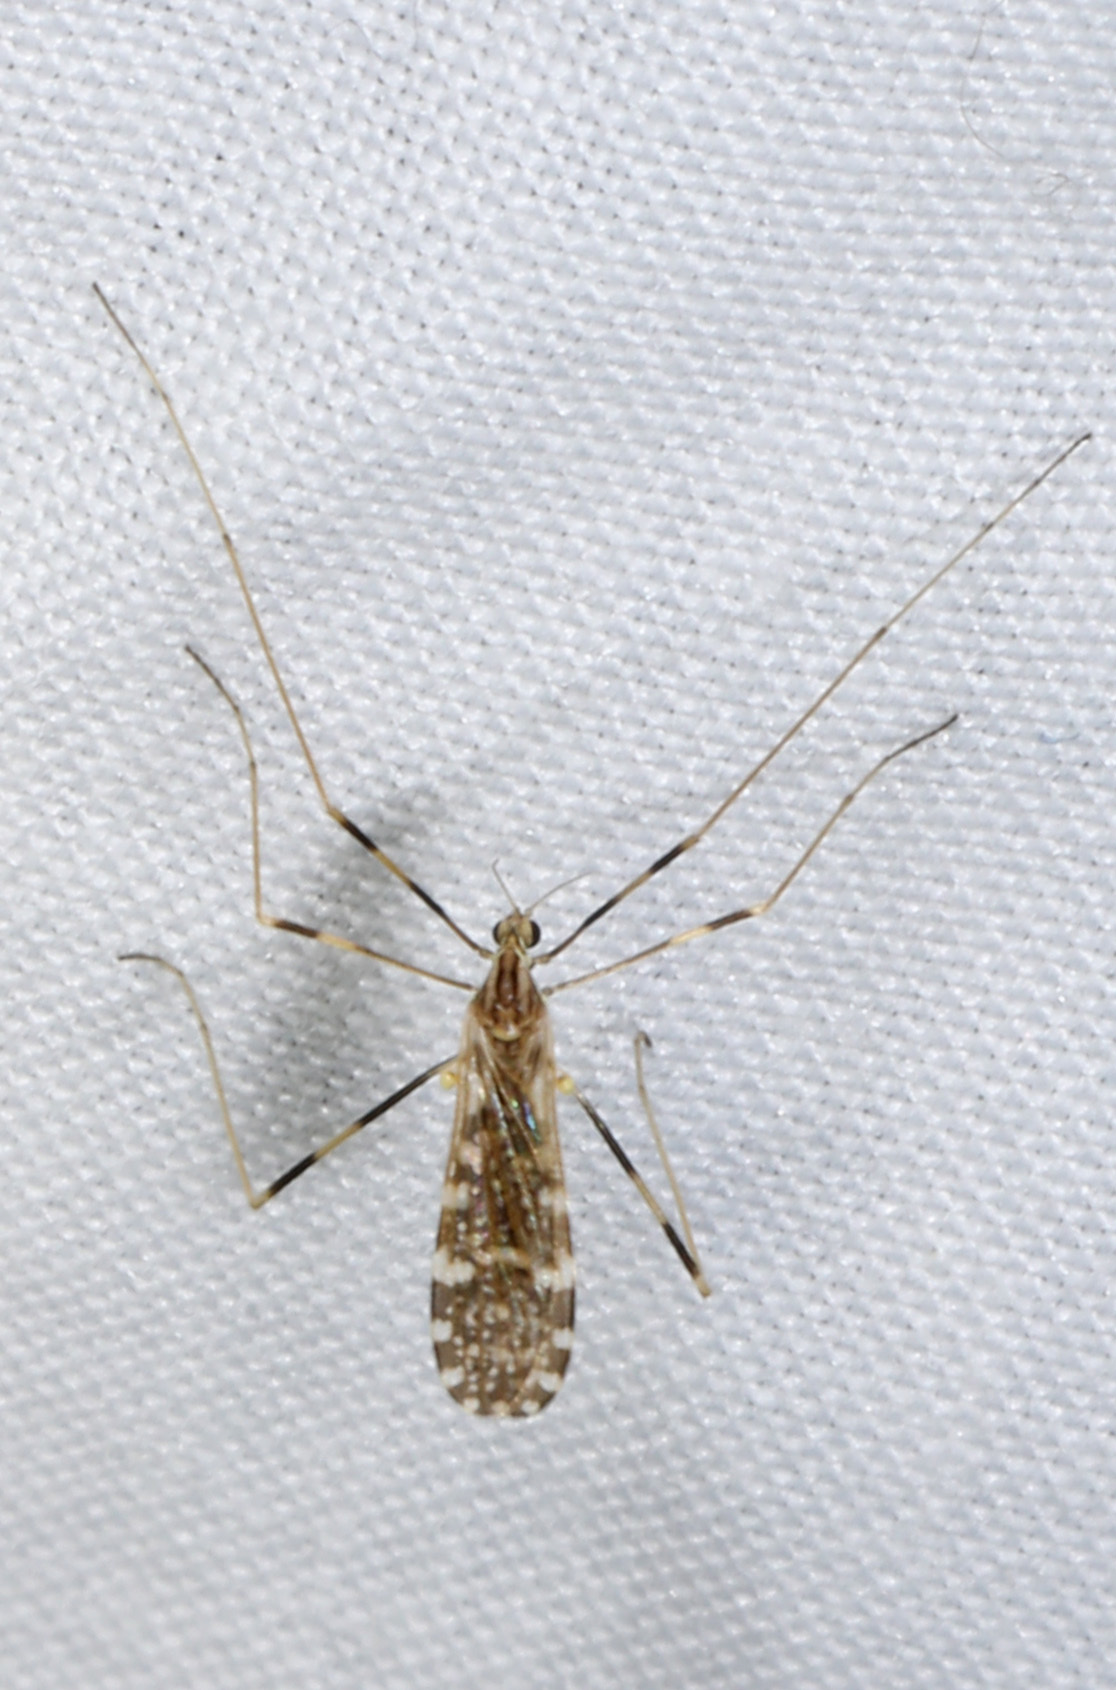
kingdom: Animalia
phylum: Arthropoda
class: Insecta
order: Diptera
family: Limoniidae
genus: Erioptera
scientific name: Erioptera caliptera
